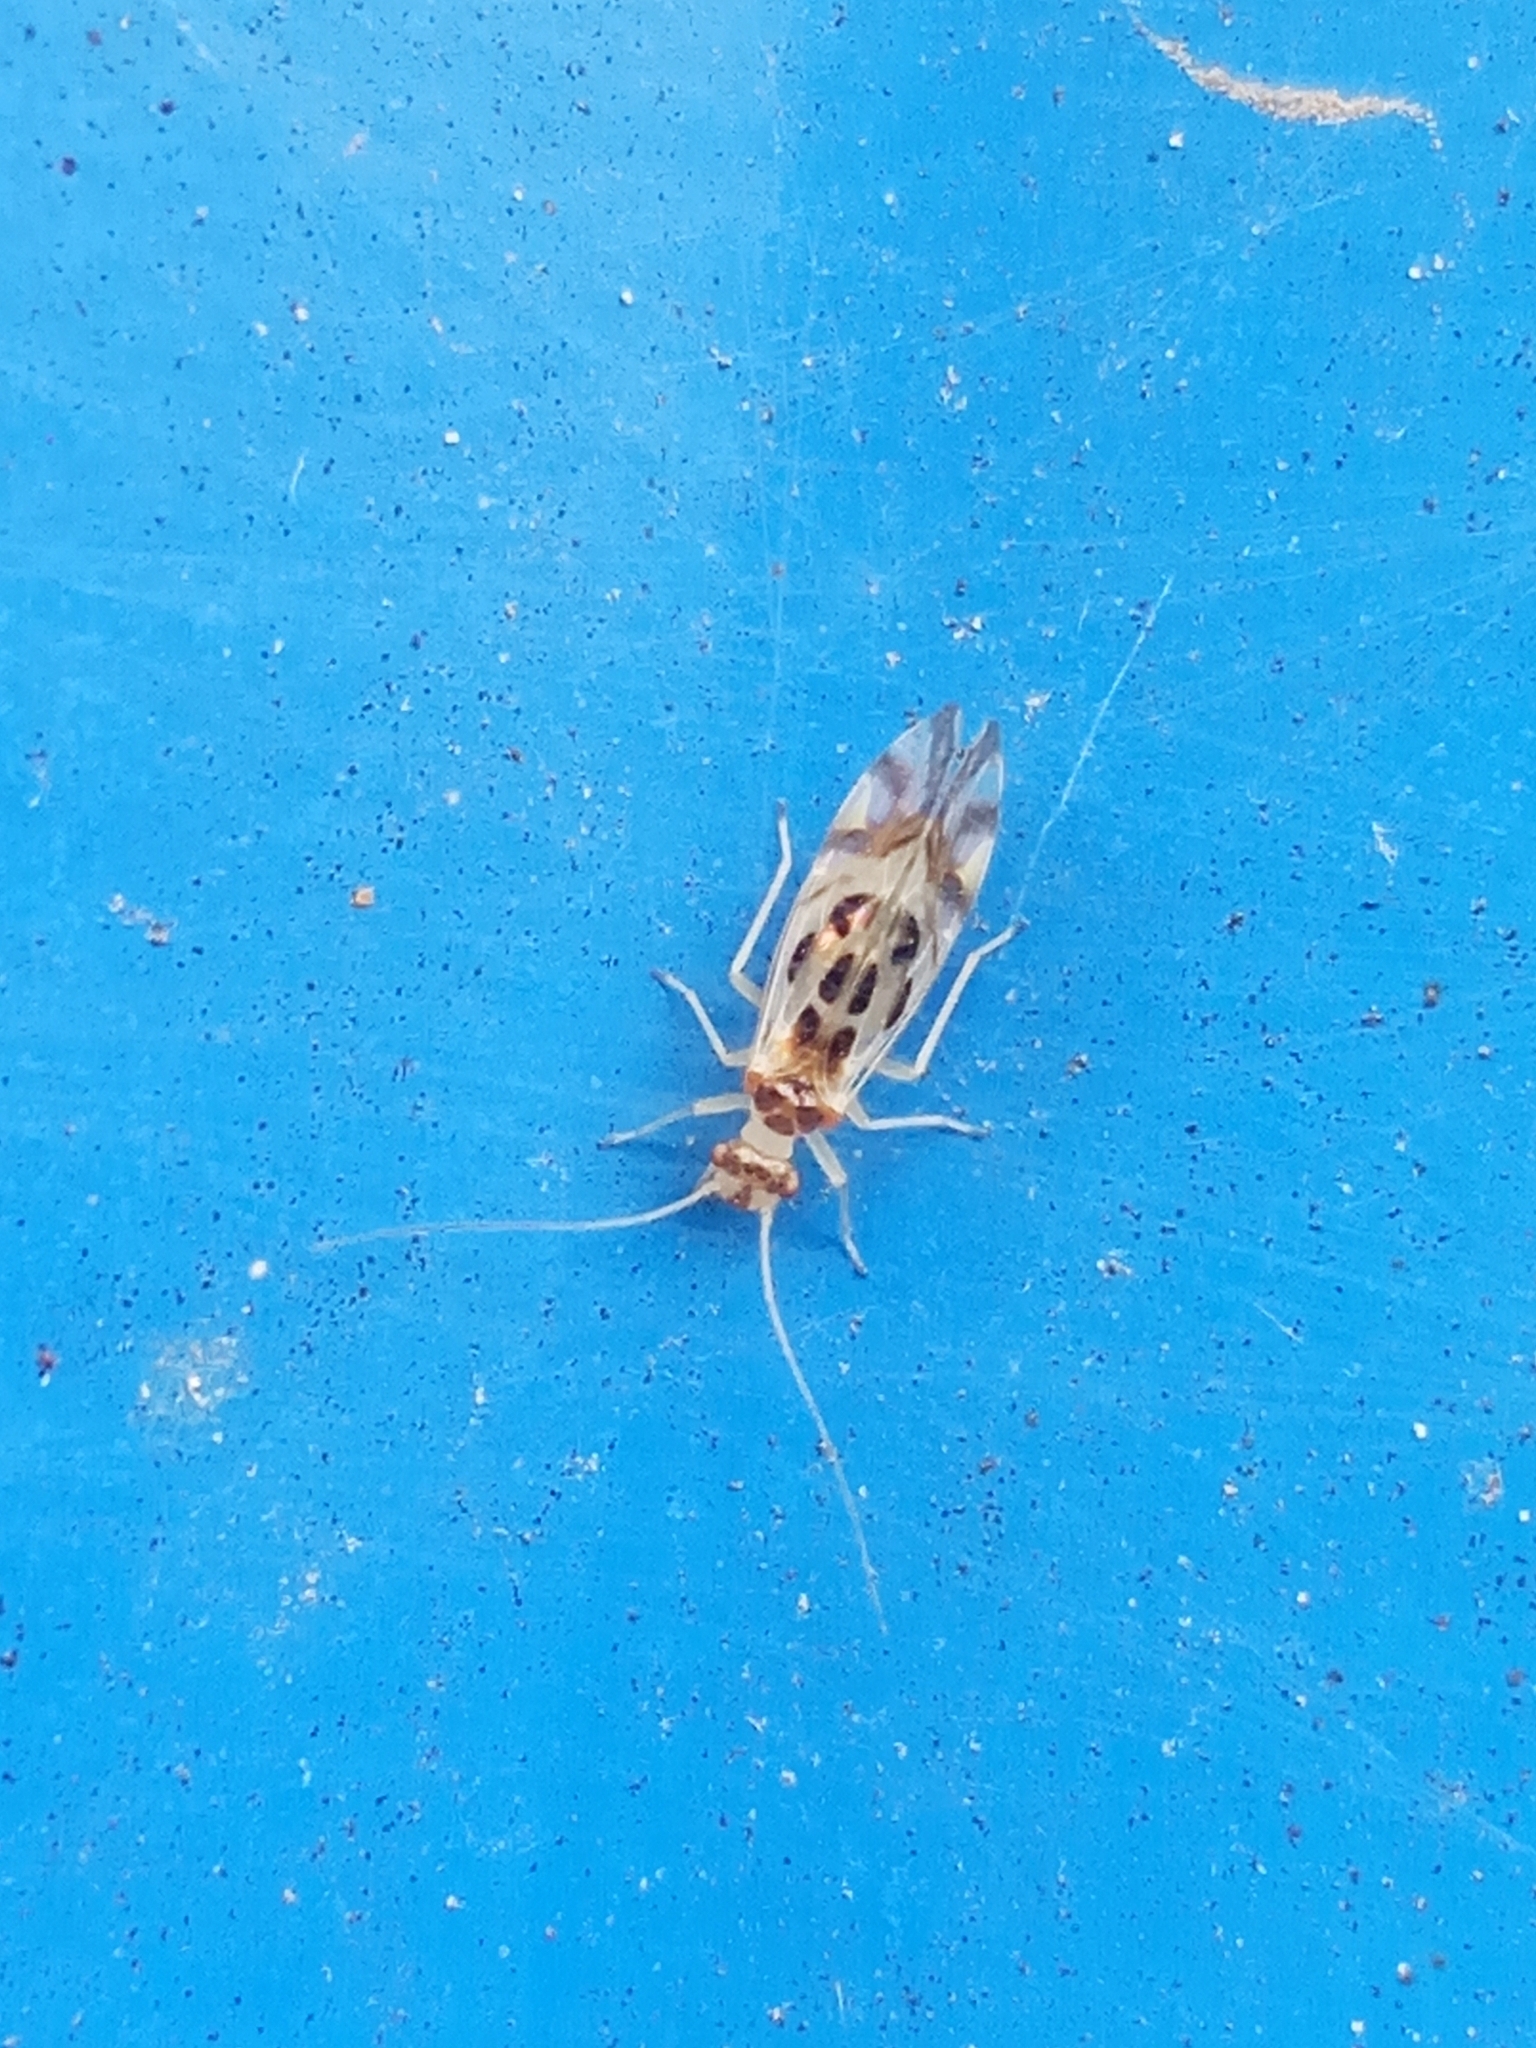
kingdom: Animalia
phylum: Arthropoda
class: Insecta
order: Psocodea
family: Stenopsocidae
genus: Graphopsocus
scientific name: Graphopsocus cruciatus
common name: Lizard bark louse
